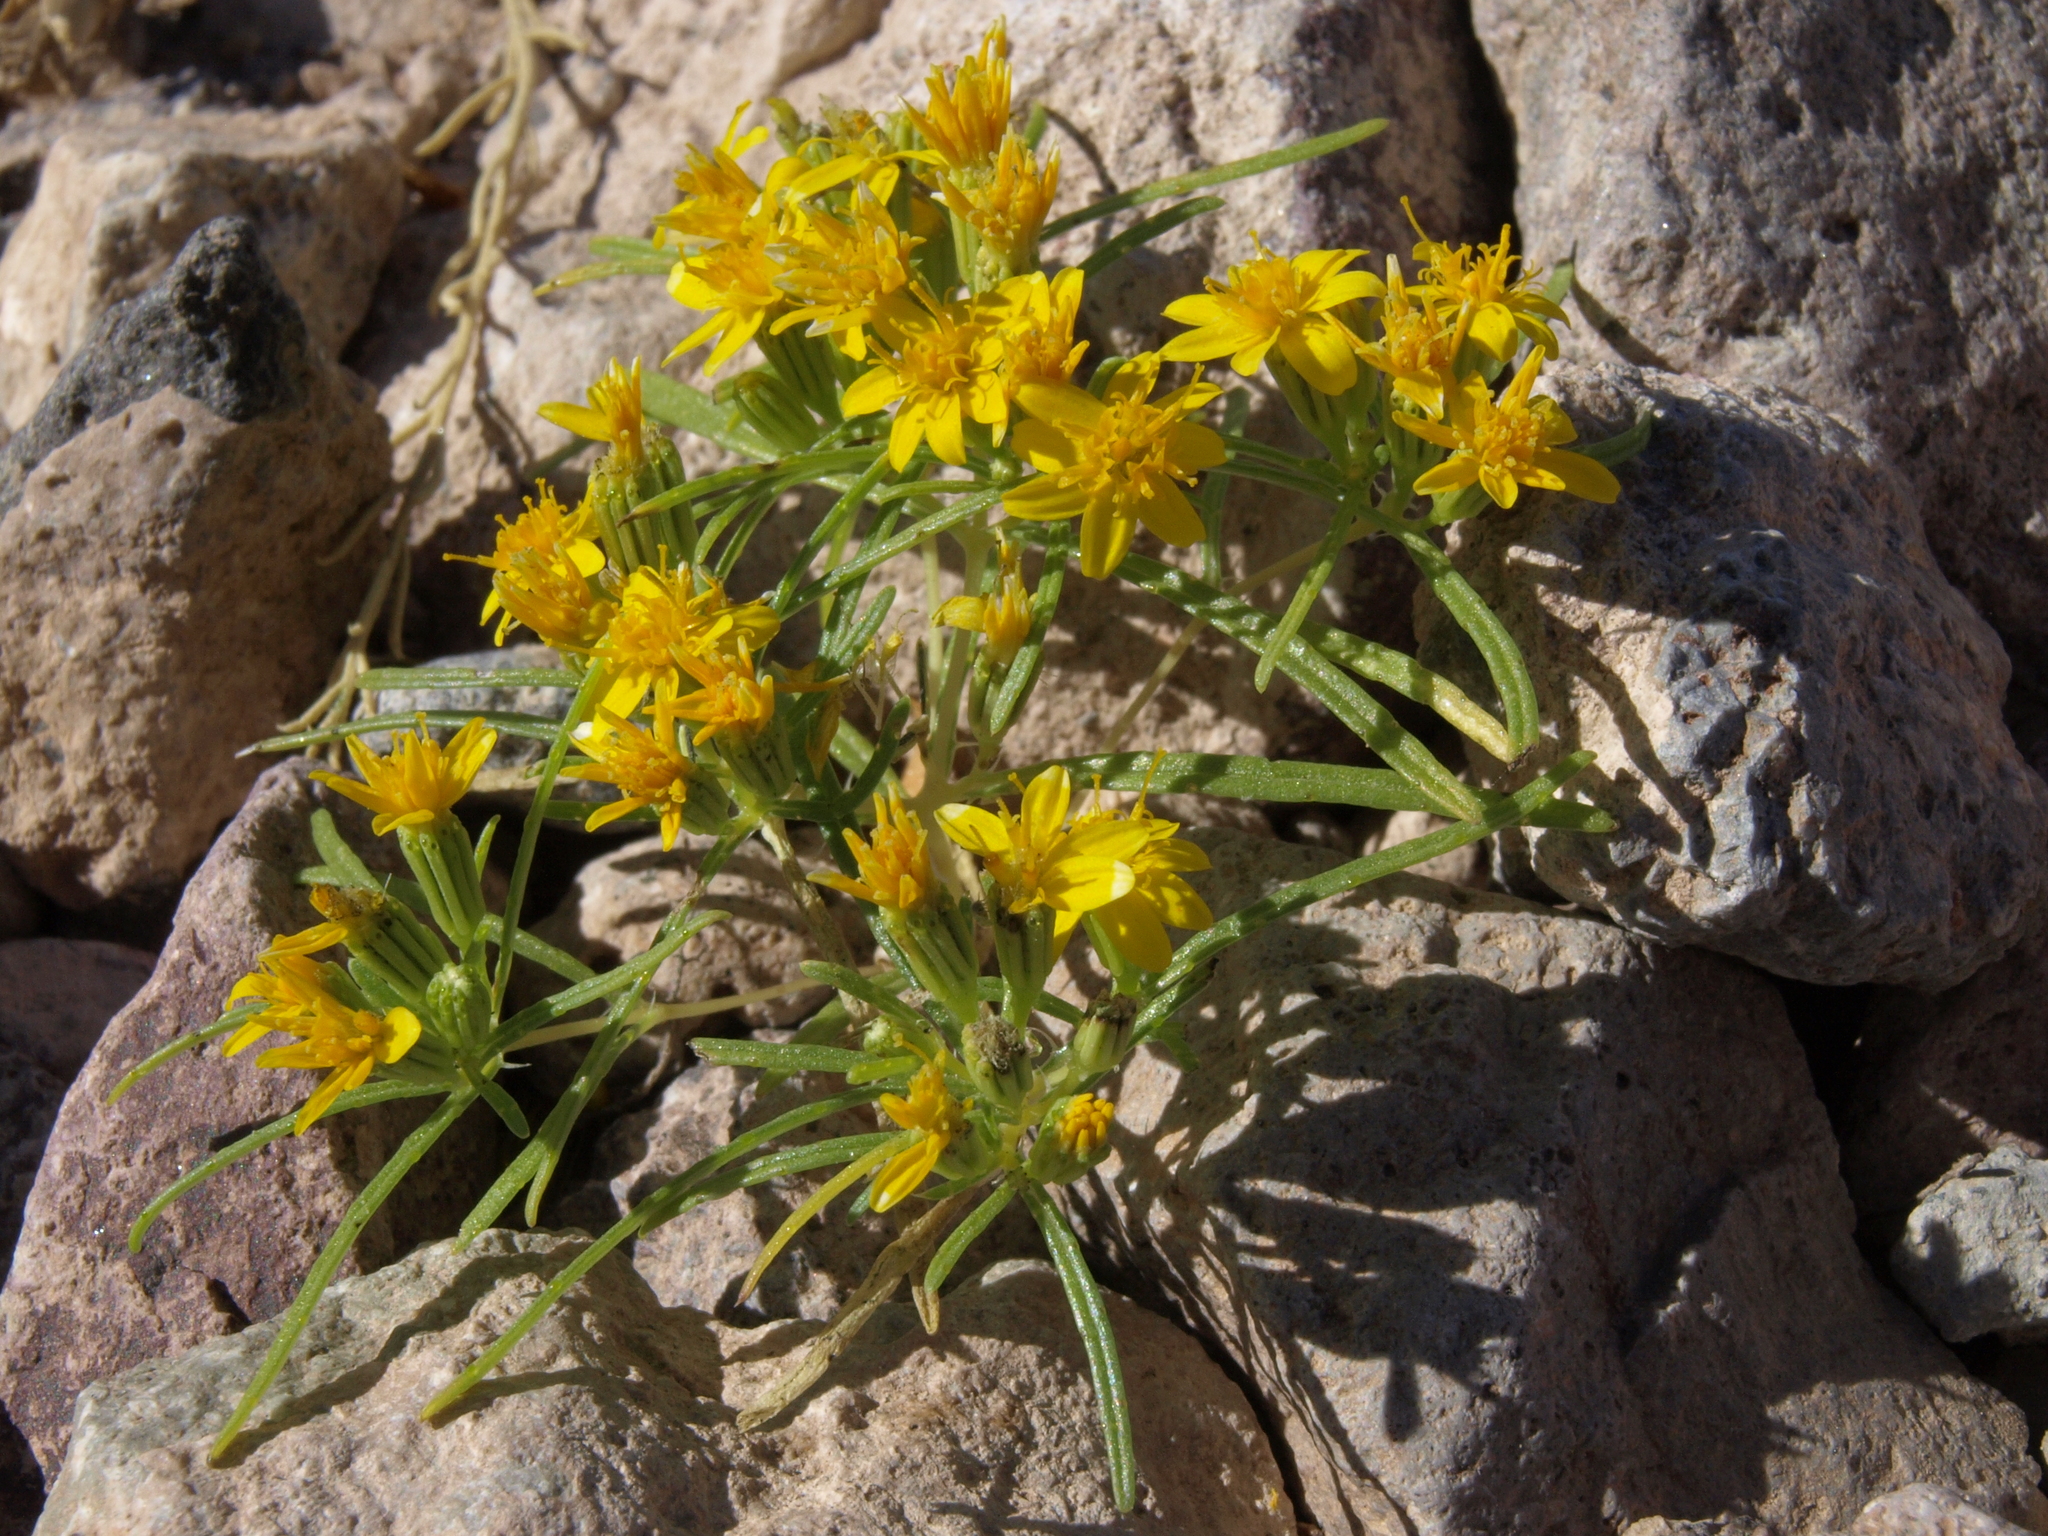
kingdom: Plantae
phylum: Tracheophyta
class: Magnoliopsida
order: Asterales
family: Asteraceae
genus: Pectis
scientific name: Pectis papposa
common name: Many-bristle chinchweed
